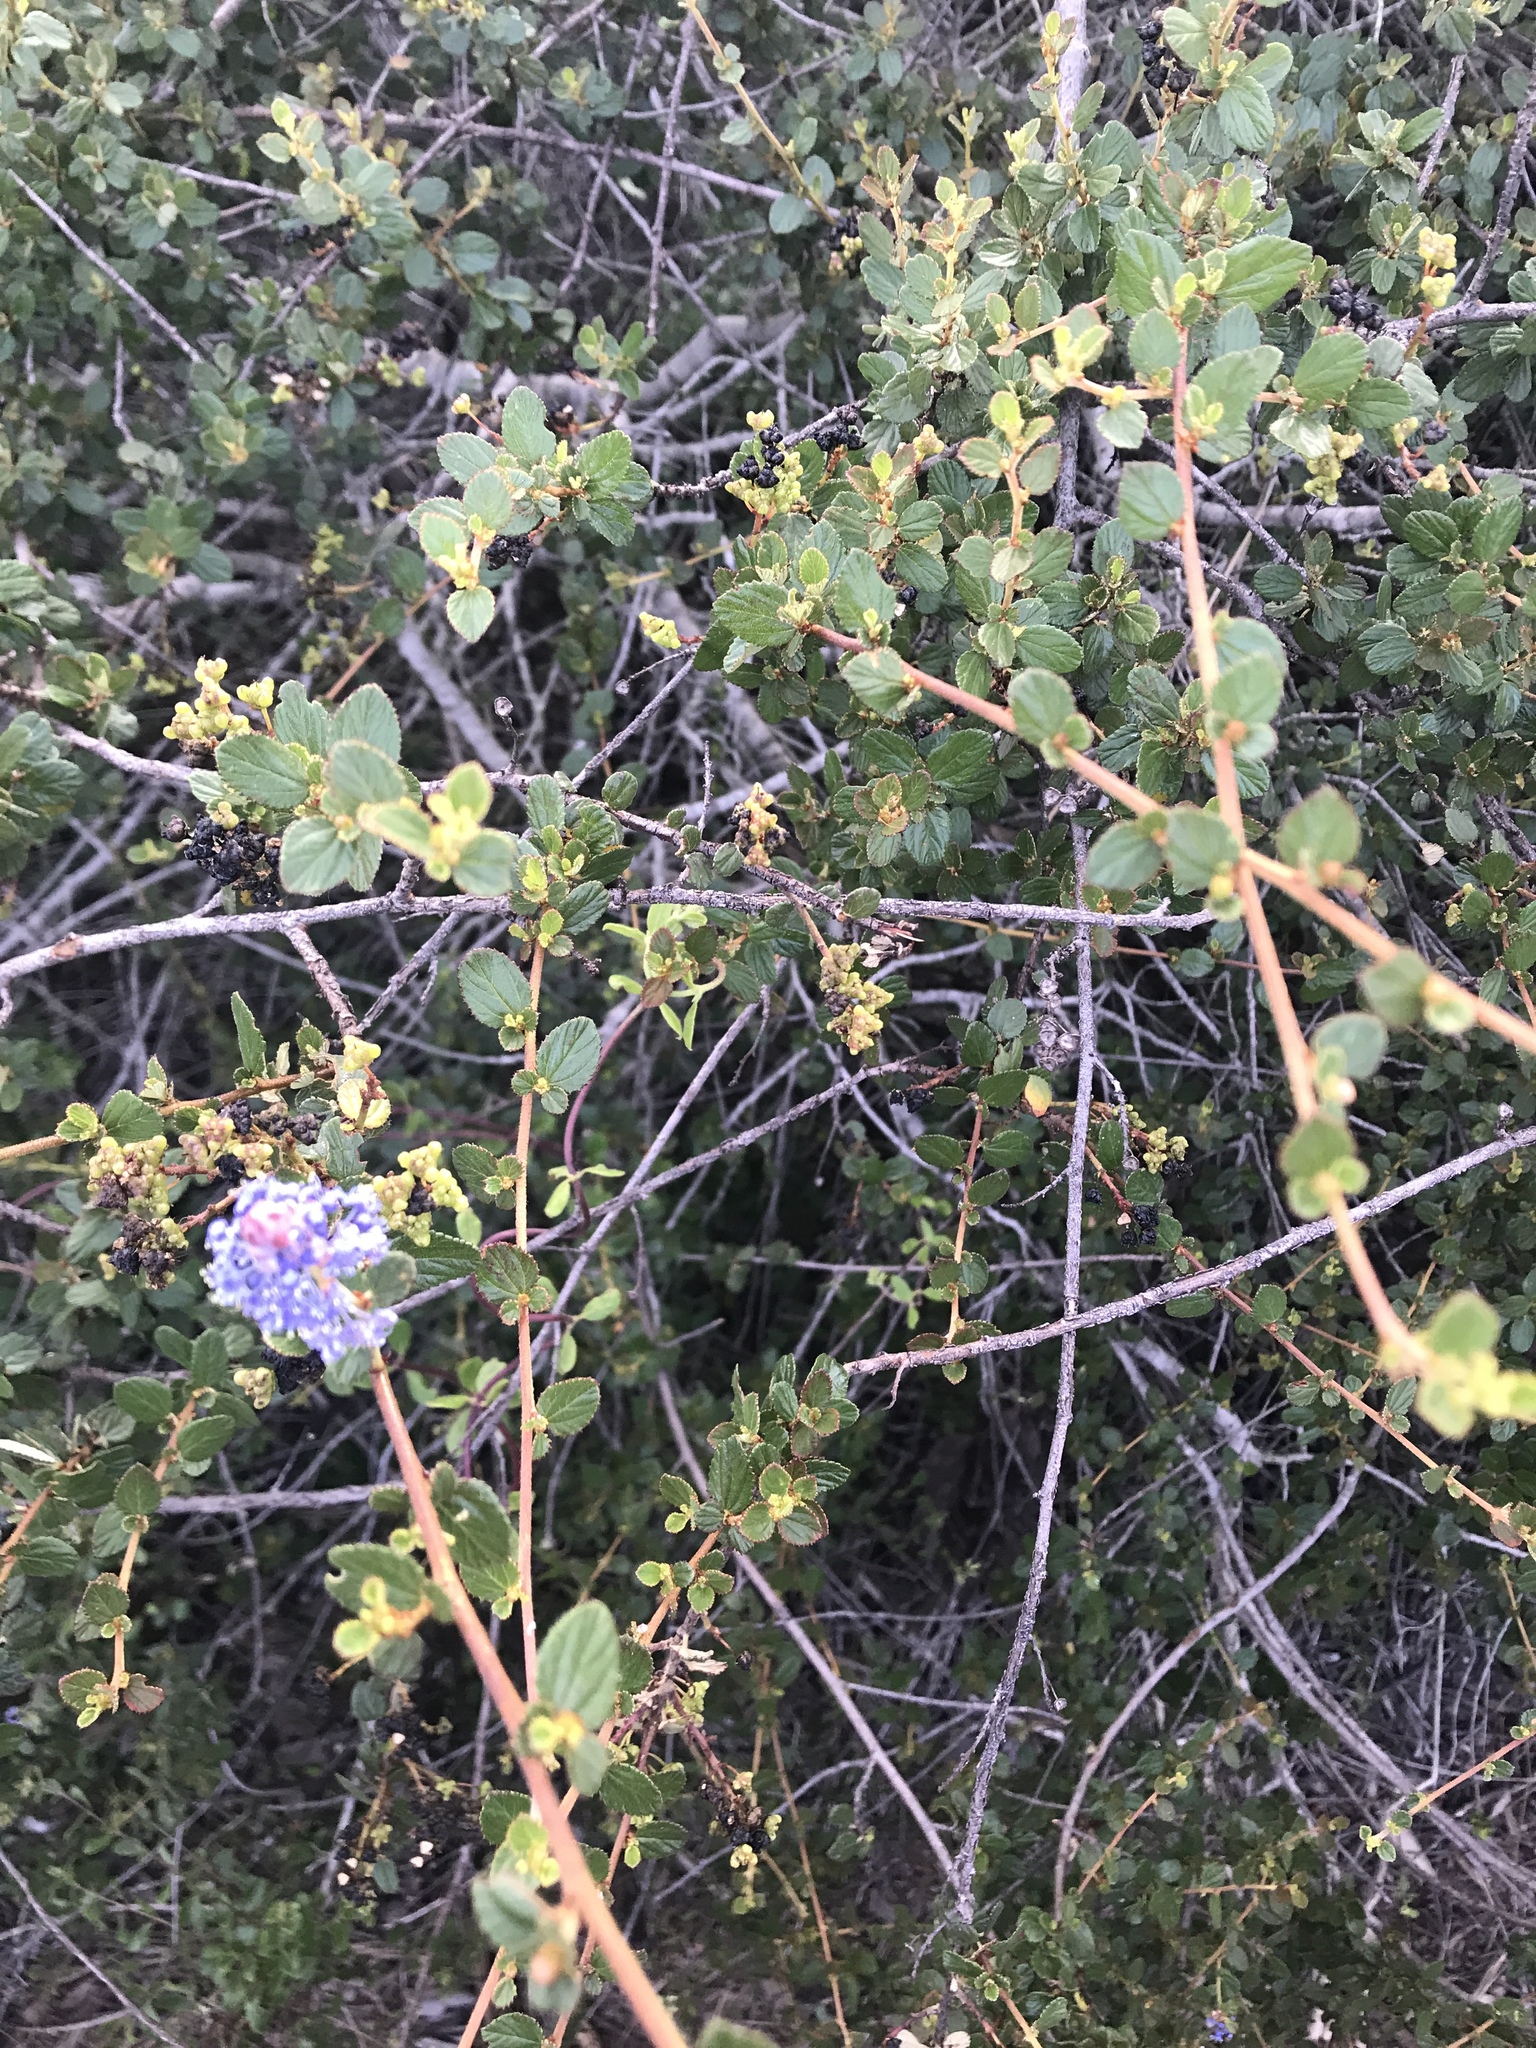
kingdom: Plantae
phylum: Tracheophyta
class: Magnoliopsida
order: Rosales
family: Rhamnaceae
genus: Ceanothus
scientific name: Ceanothus tomentosus
